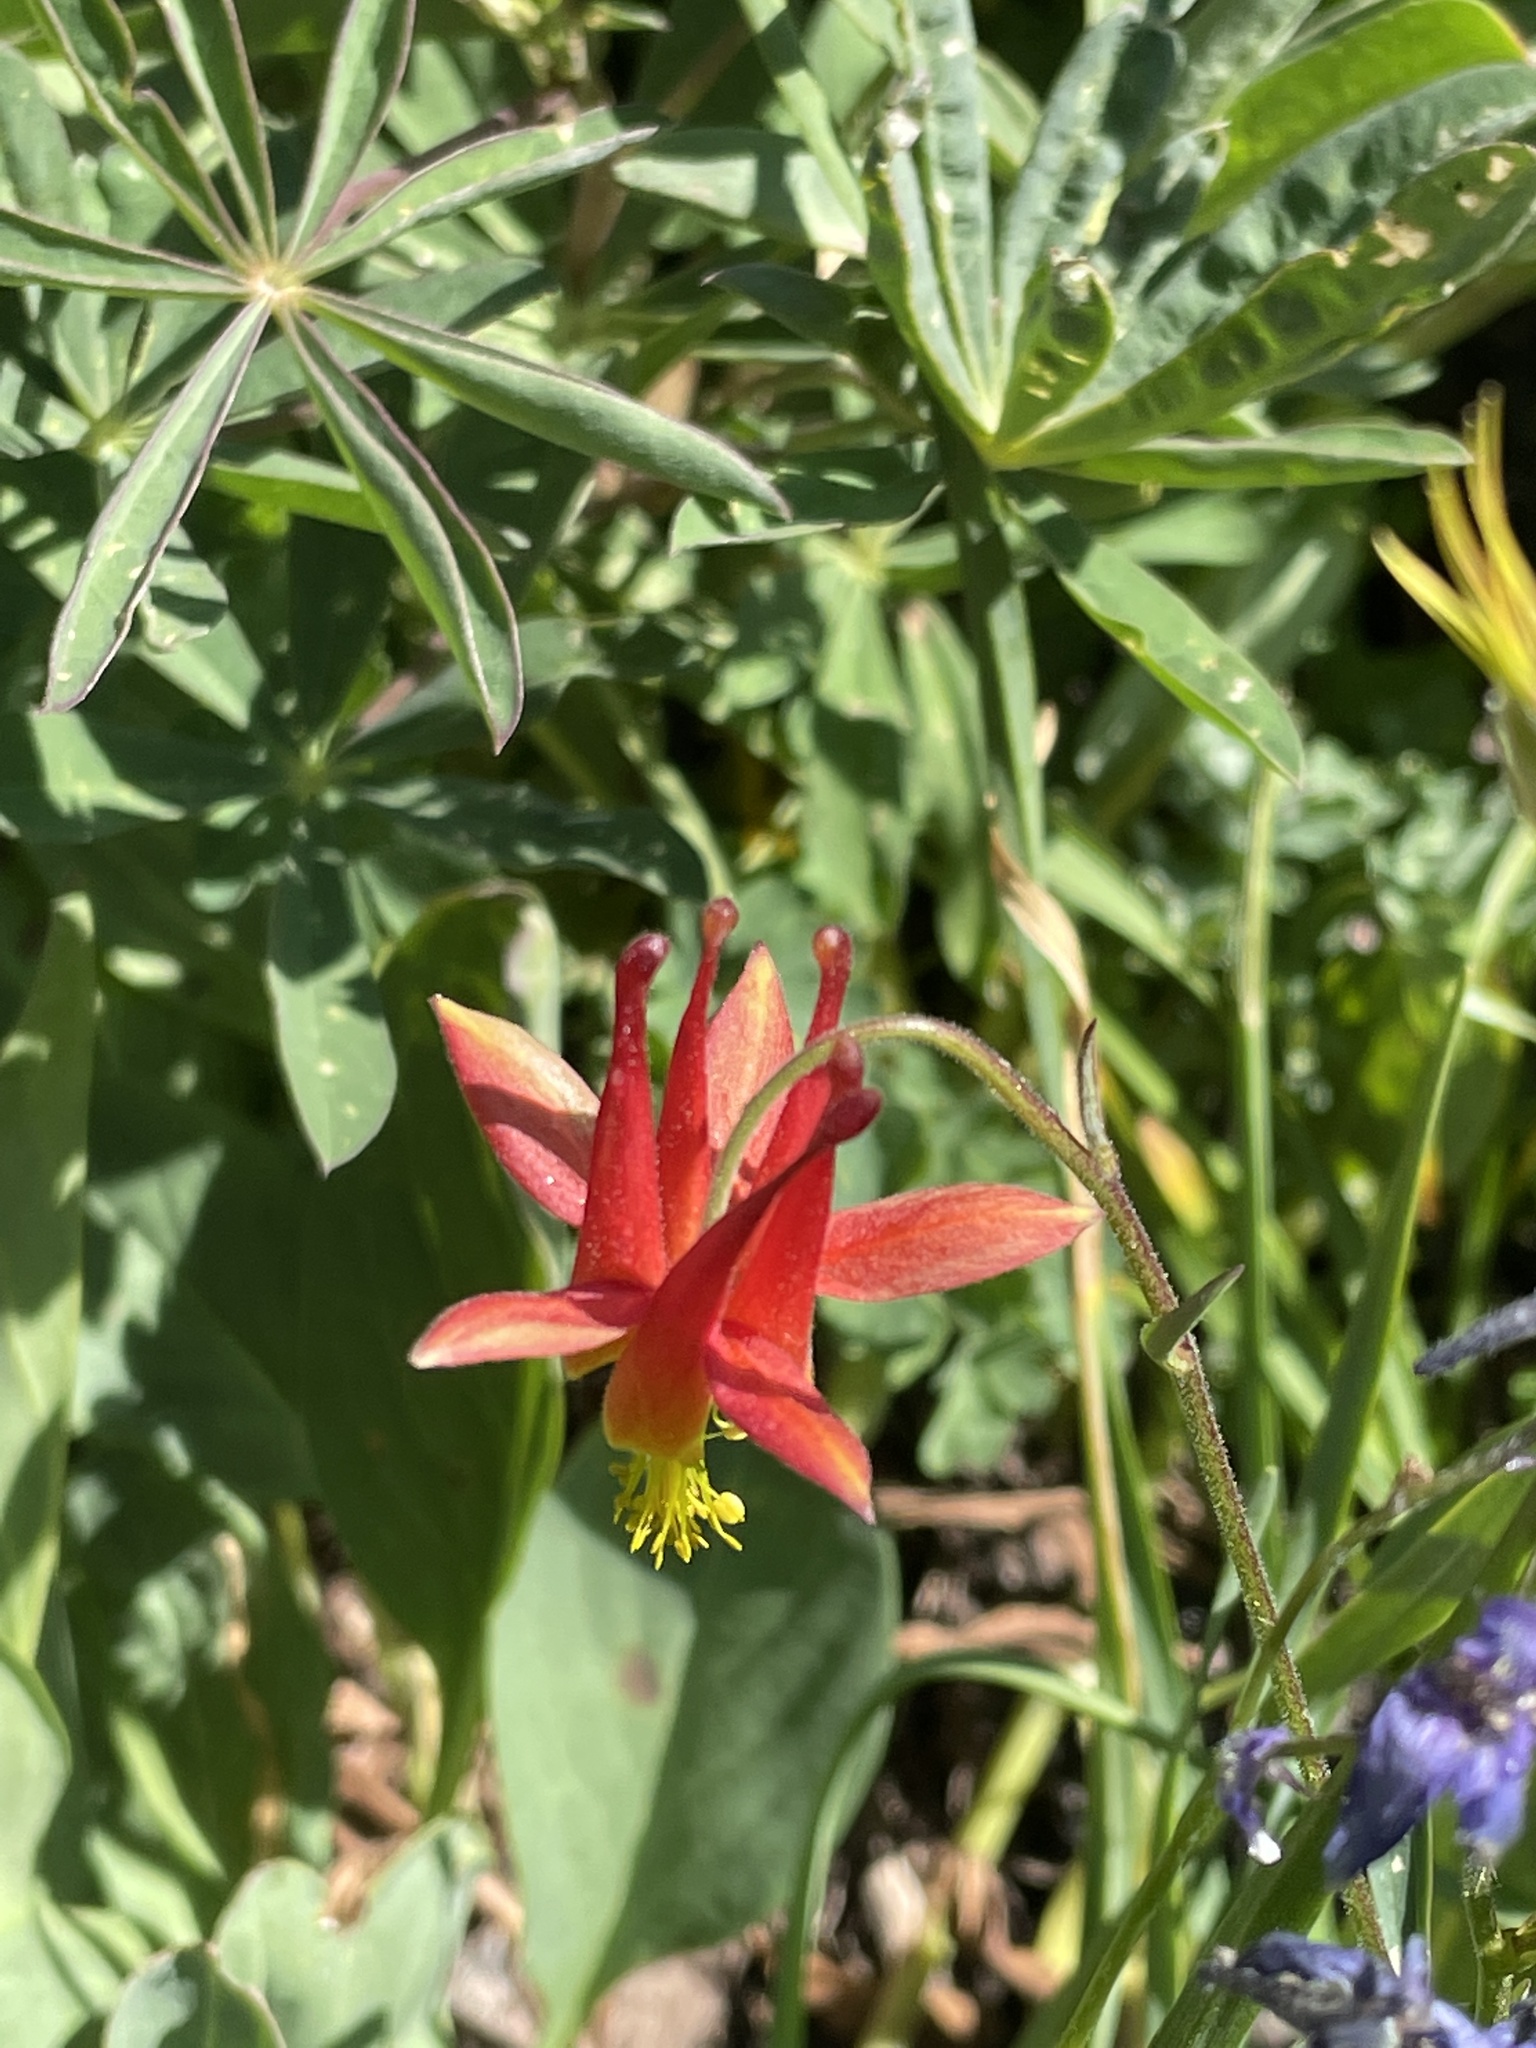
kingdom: Plantae
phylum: Tracheophyta
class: Magnoliopsida
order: Ranunculales
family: Ranunculaceae
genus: Aquilegia
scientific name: Aquilegia formosa
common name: Sitka columbine
